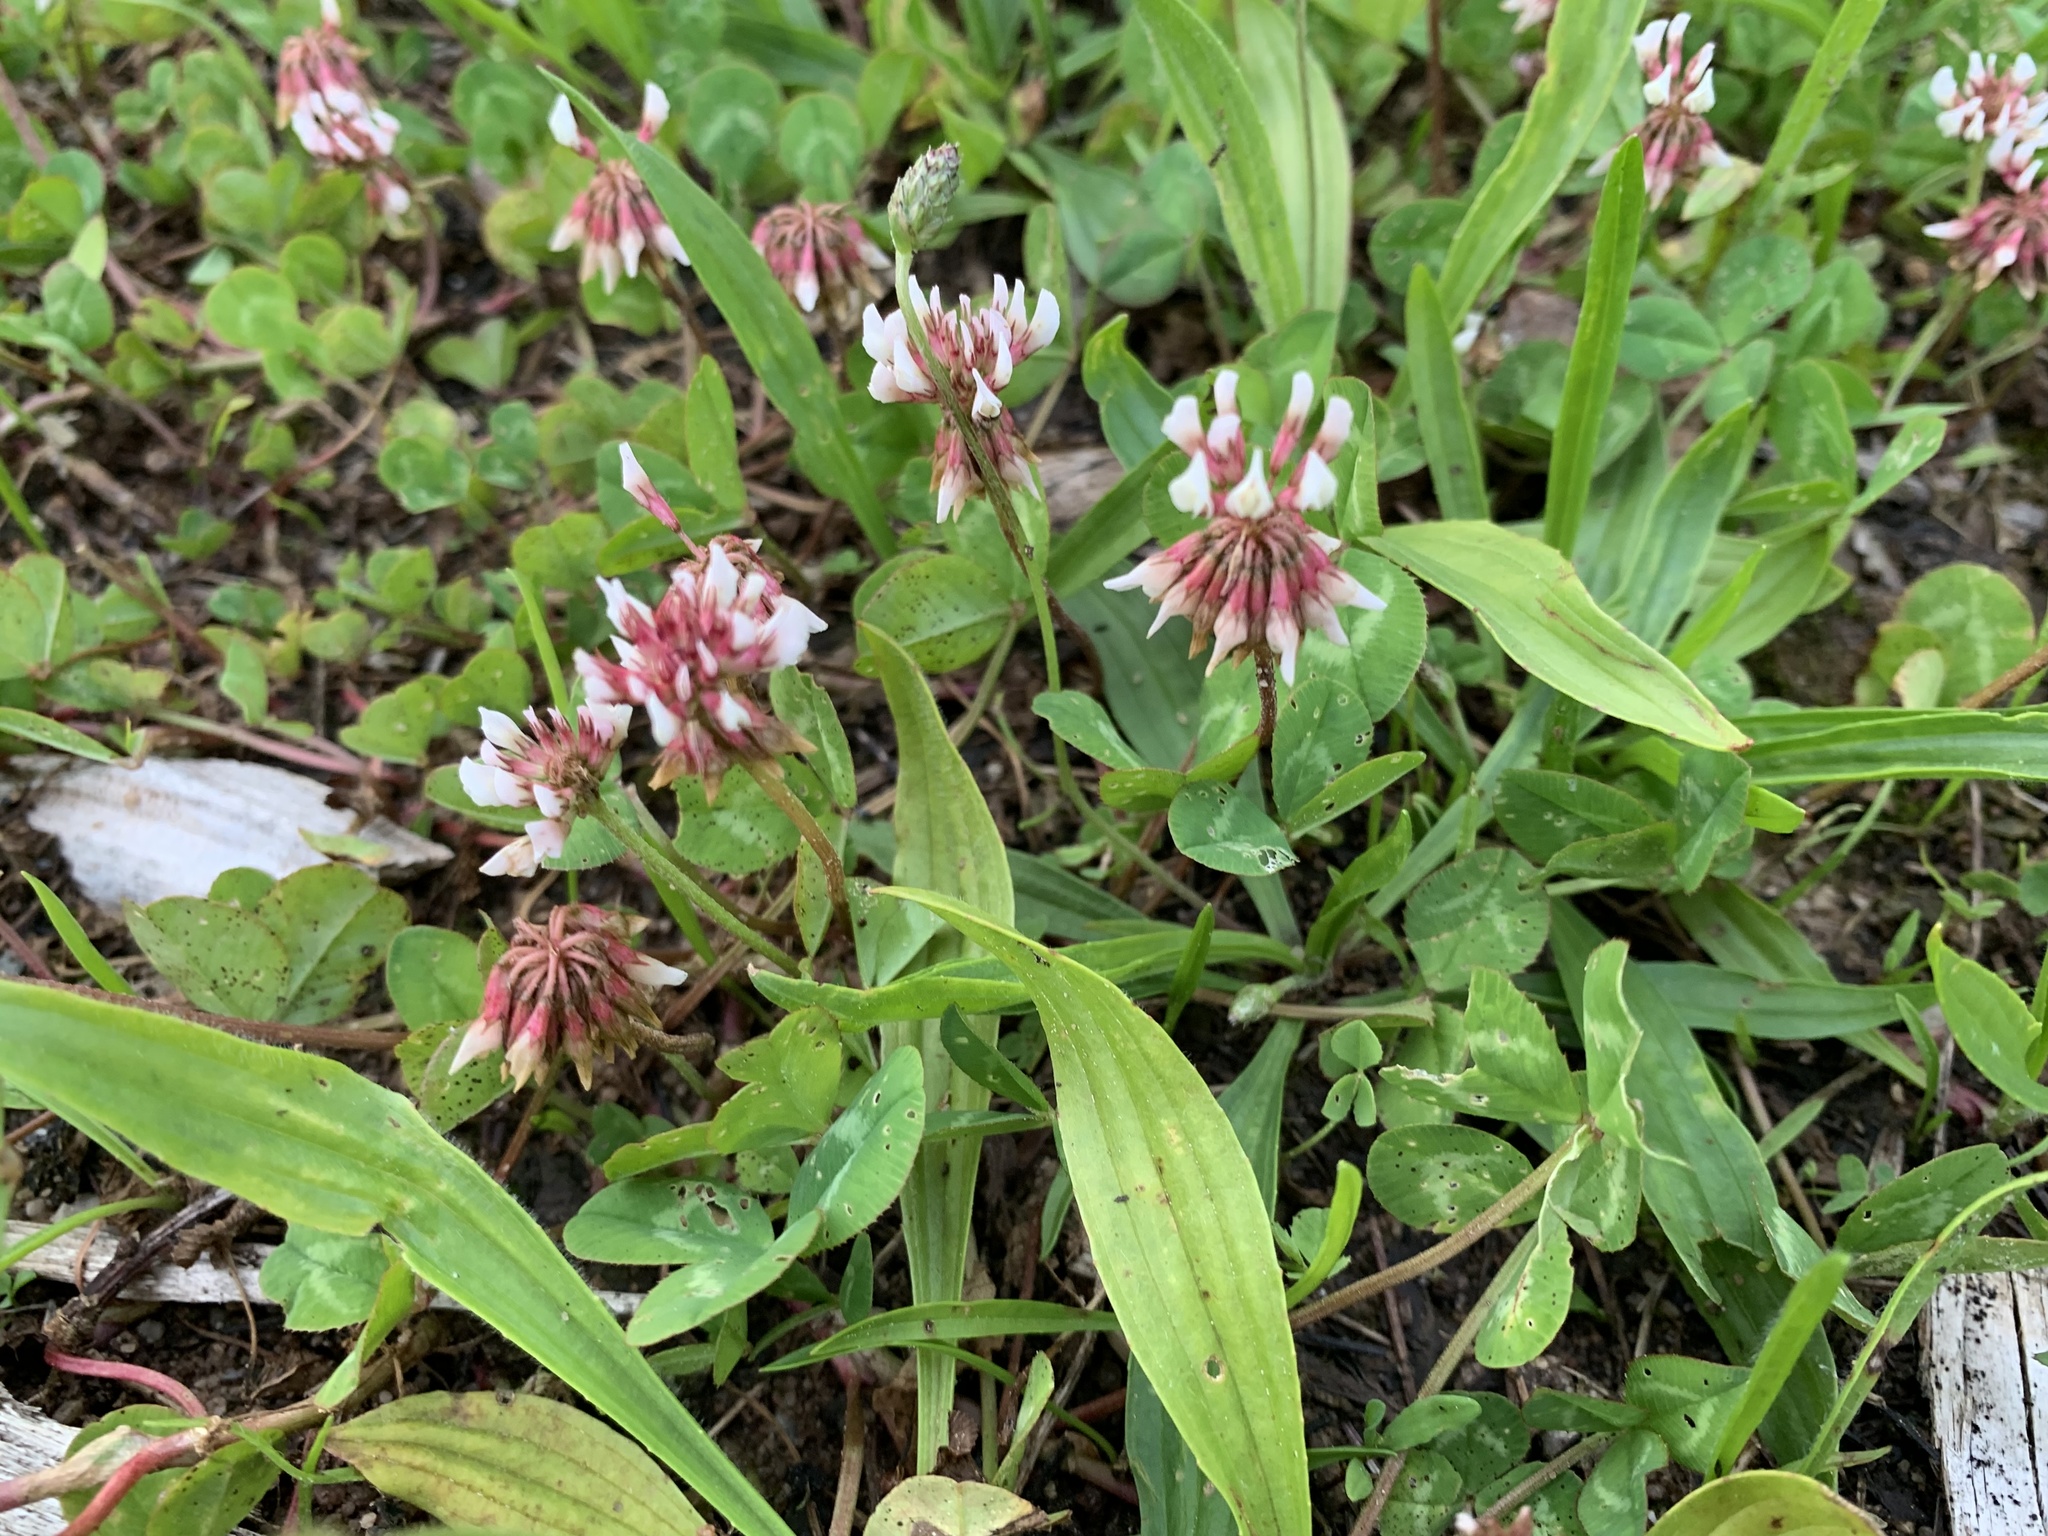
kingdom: Plantae
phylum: Tracheophyta
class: Magnoliopsida
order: Fabales
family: Fabaceae
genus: Trifolium
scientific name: Trifolium repens
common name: White clover
